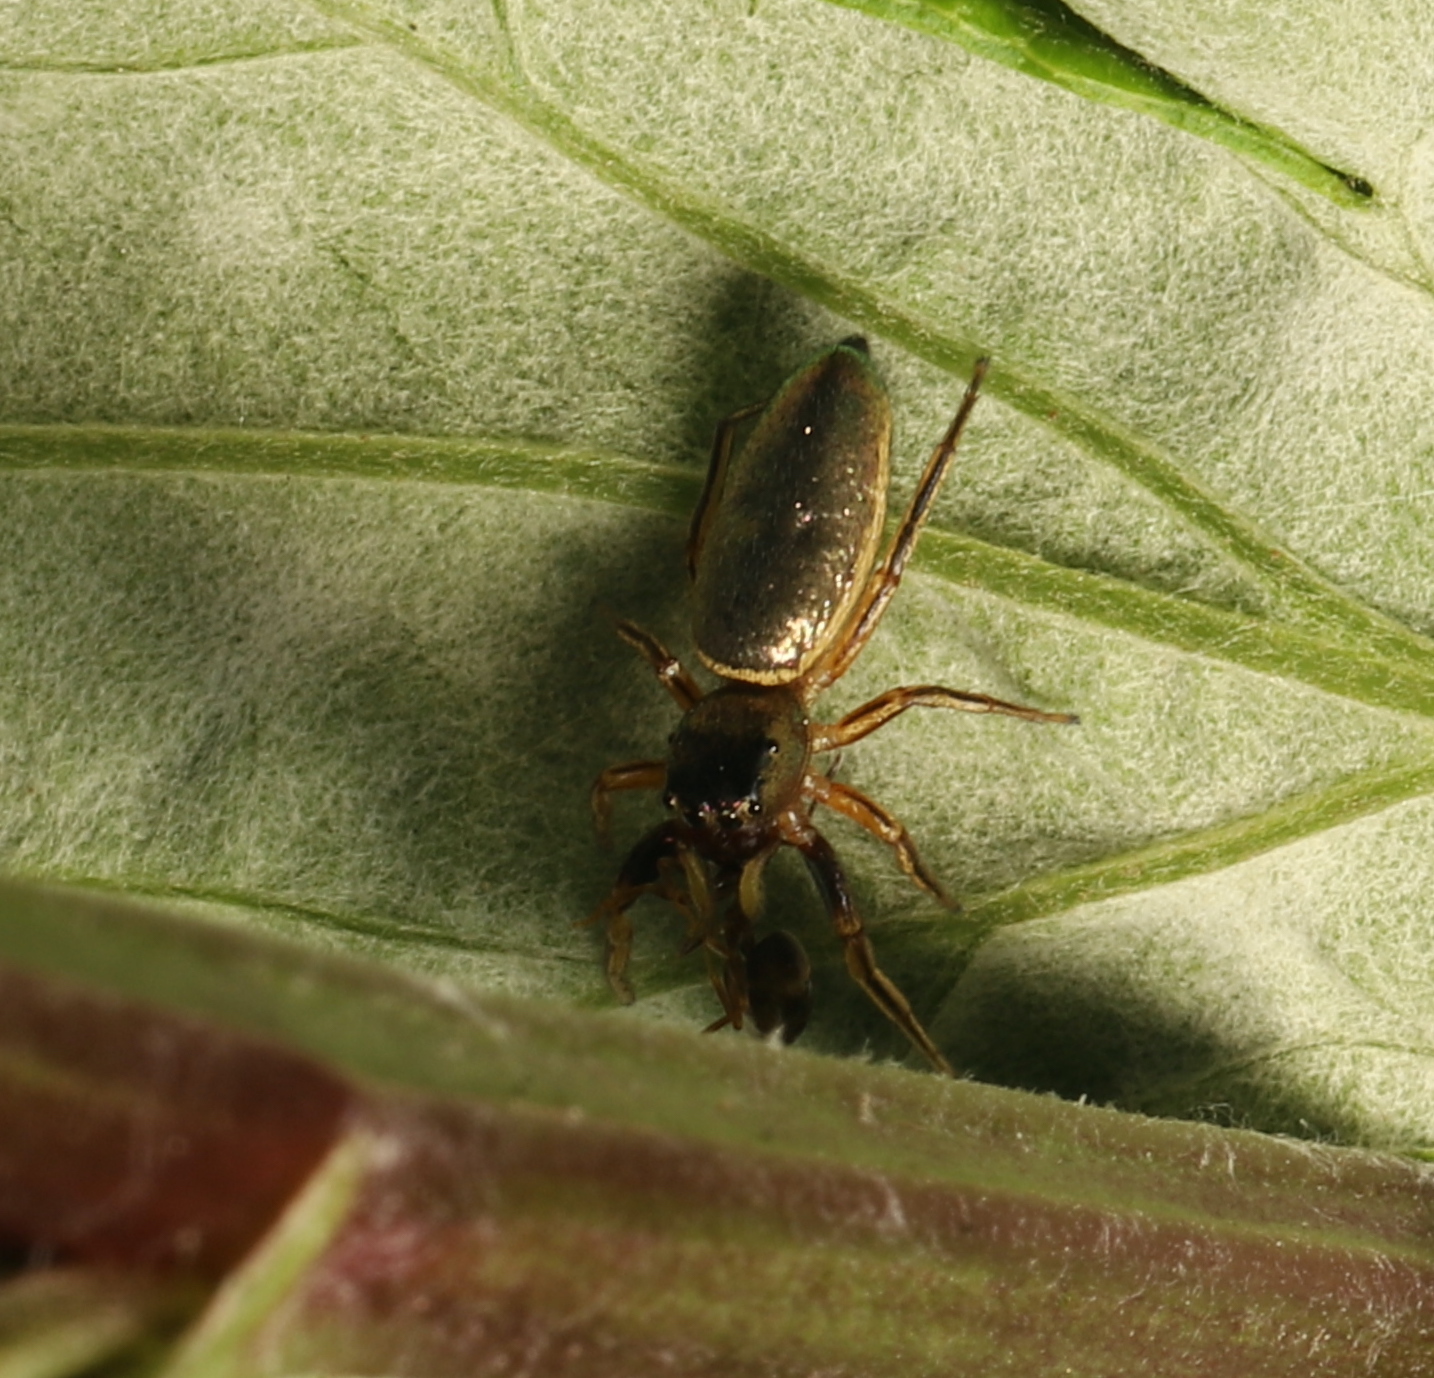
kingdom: Animalia
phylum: Arthropoda
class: Arachnida
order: Araneae
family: Salticidae
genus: Tutelina
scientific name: Tutelina elegans
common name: Thin-spined jumping spider
